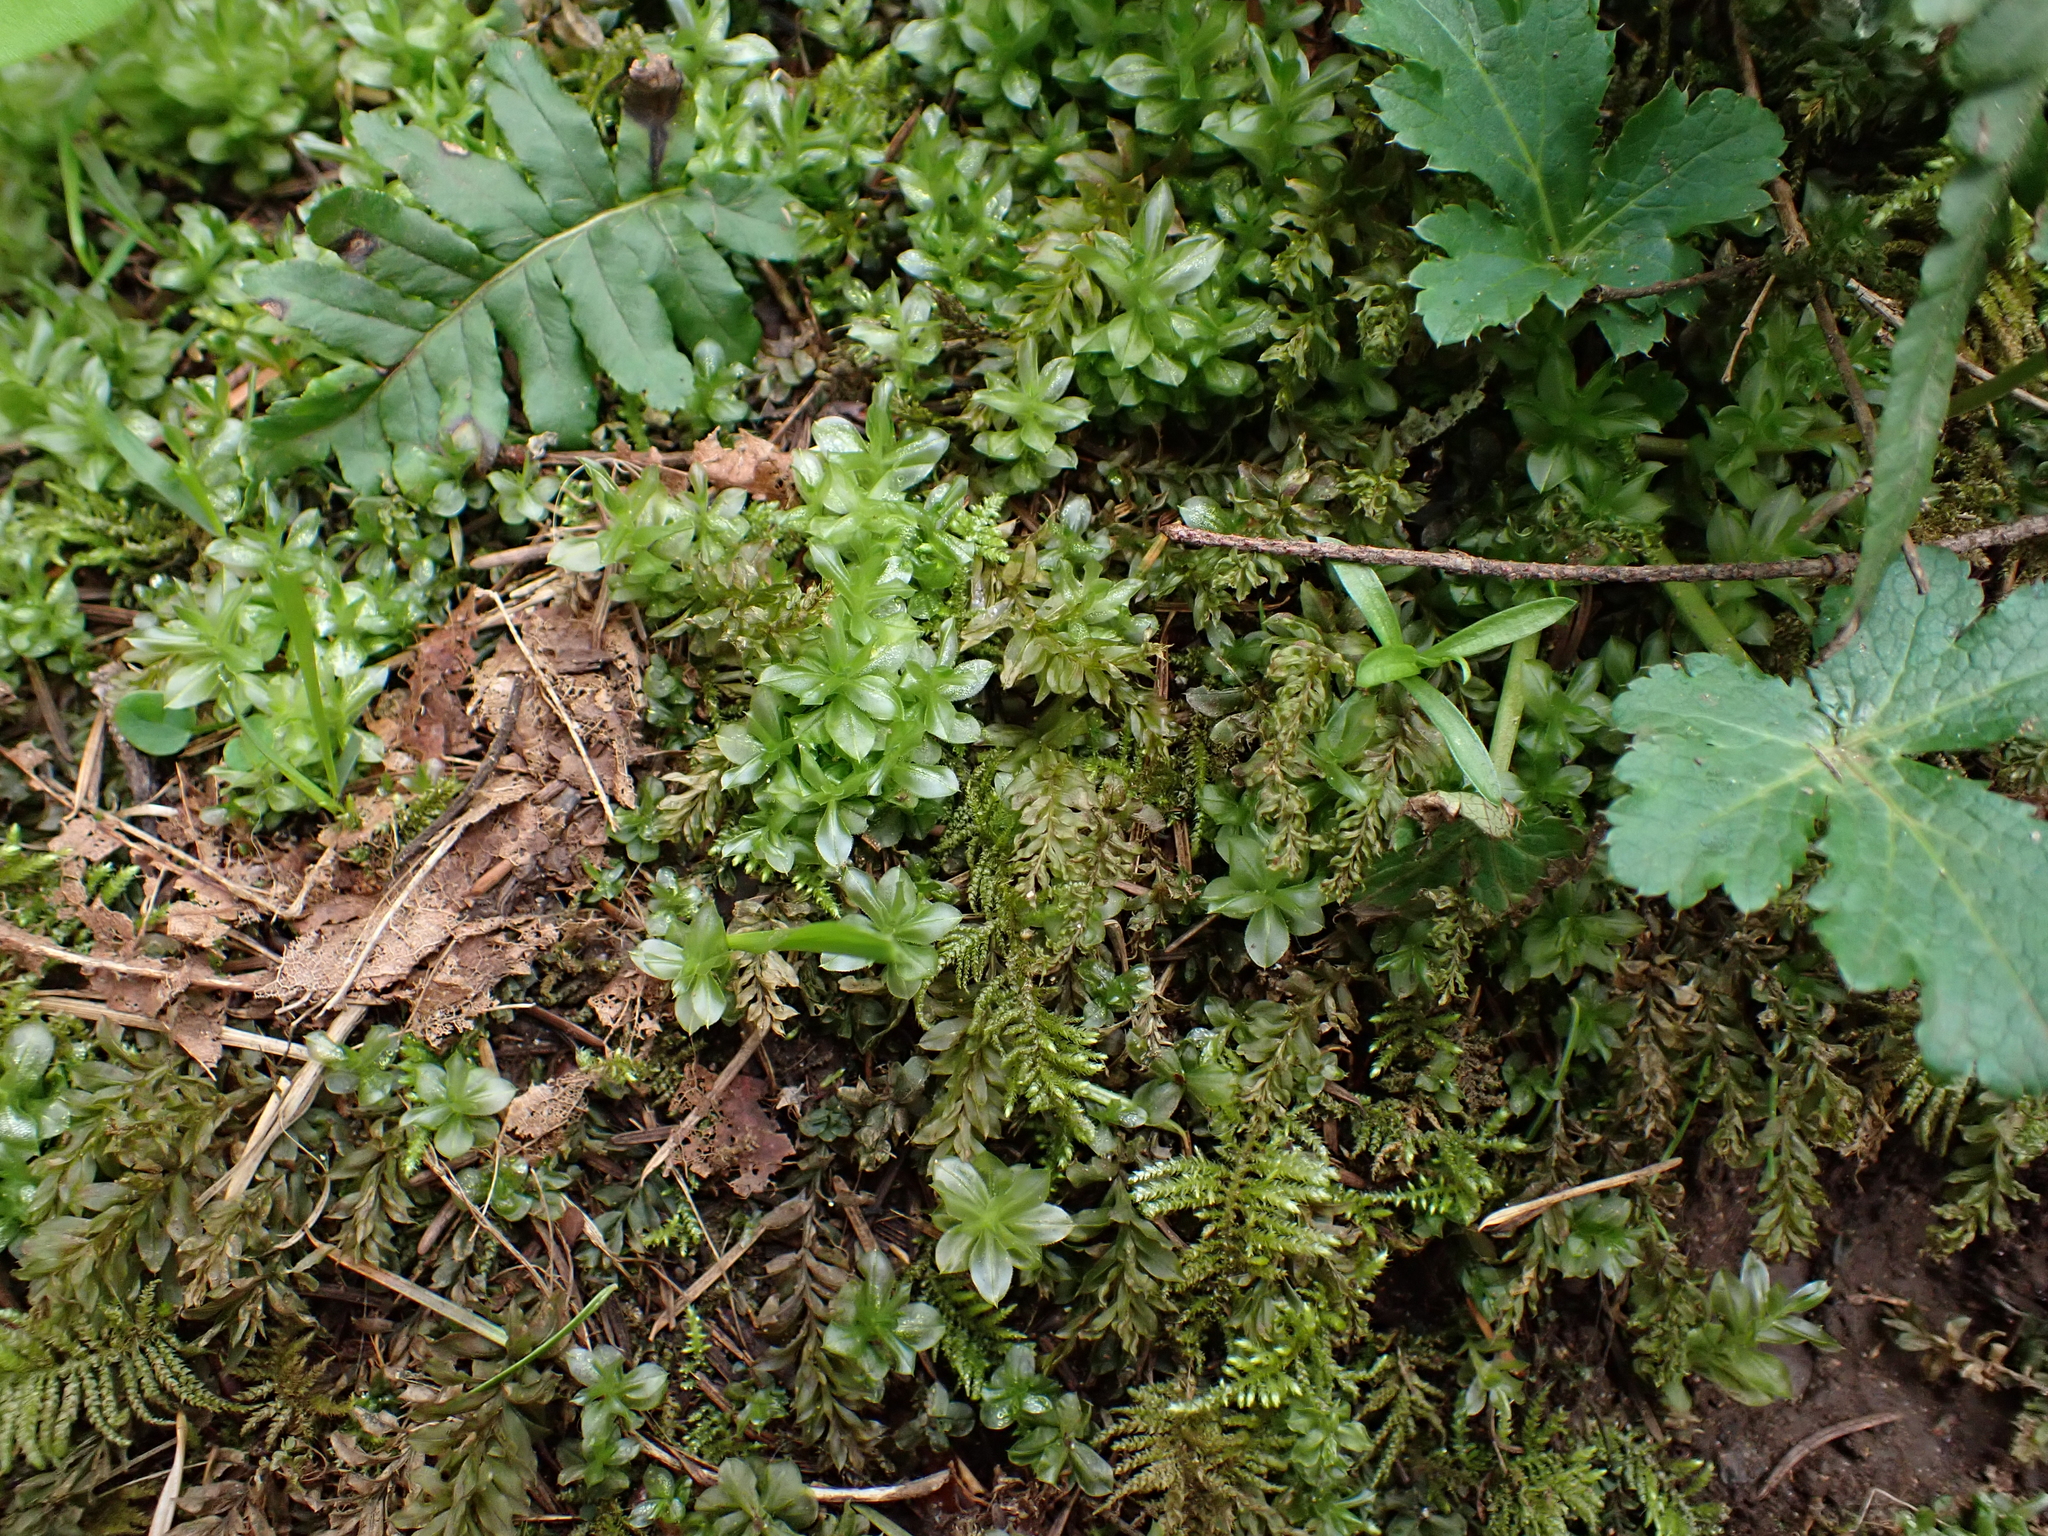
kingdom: Plantae
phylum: Bryophyta
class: Bryopsida
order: Bryales
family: Mniaceae
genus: Plagiomnium
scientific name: Plagiomnium insigne
